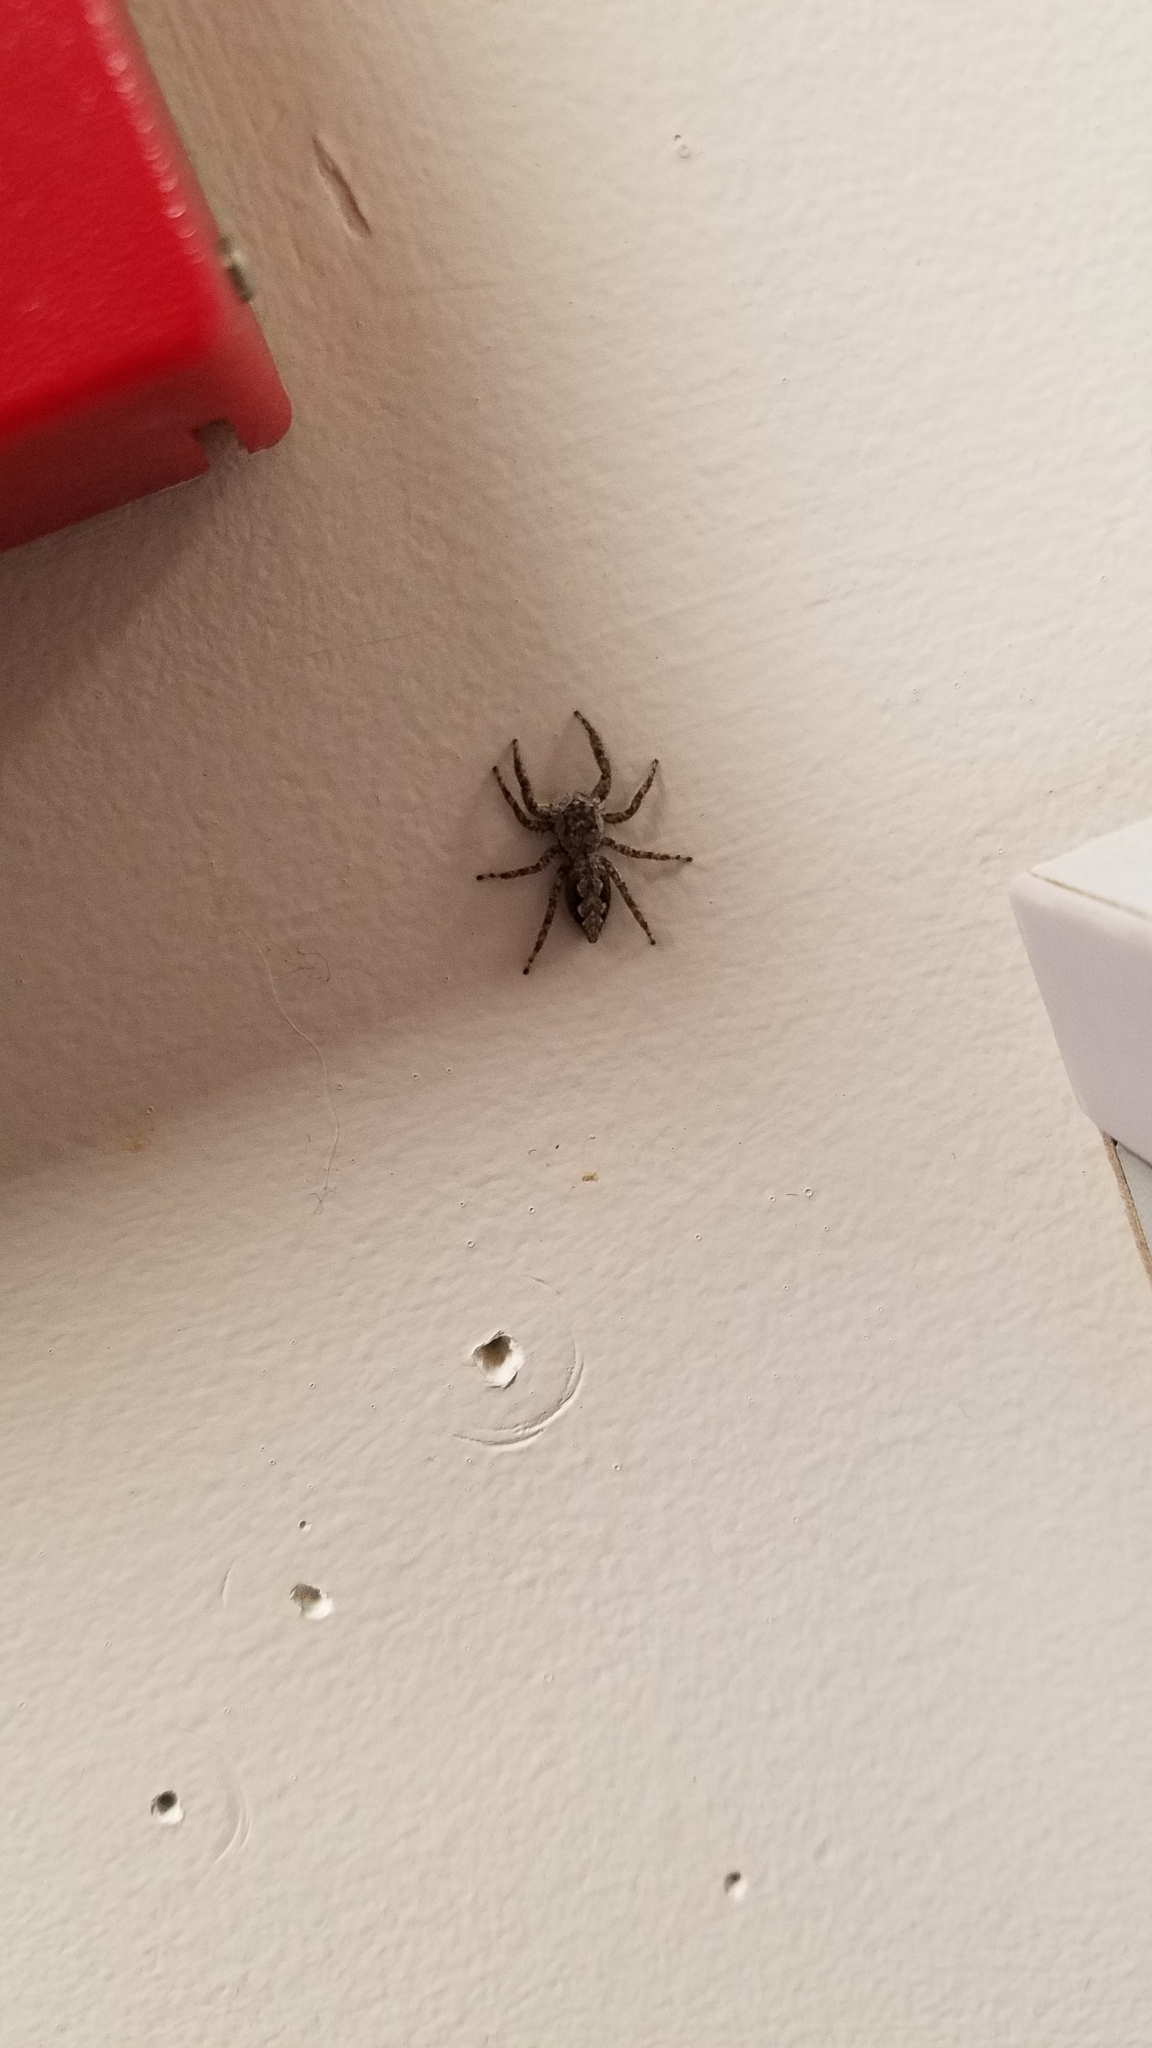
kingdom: Animalia
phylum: Arthropoda
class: Arachnida
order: Araneae
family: Salticidae
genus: Platycryptus
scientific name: Platycryptus undatus
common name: Tan jumping spider
